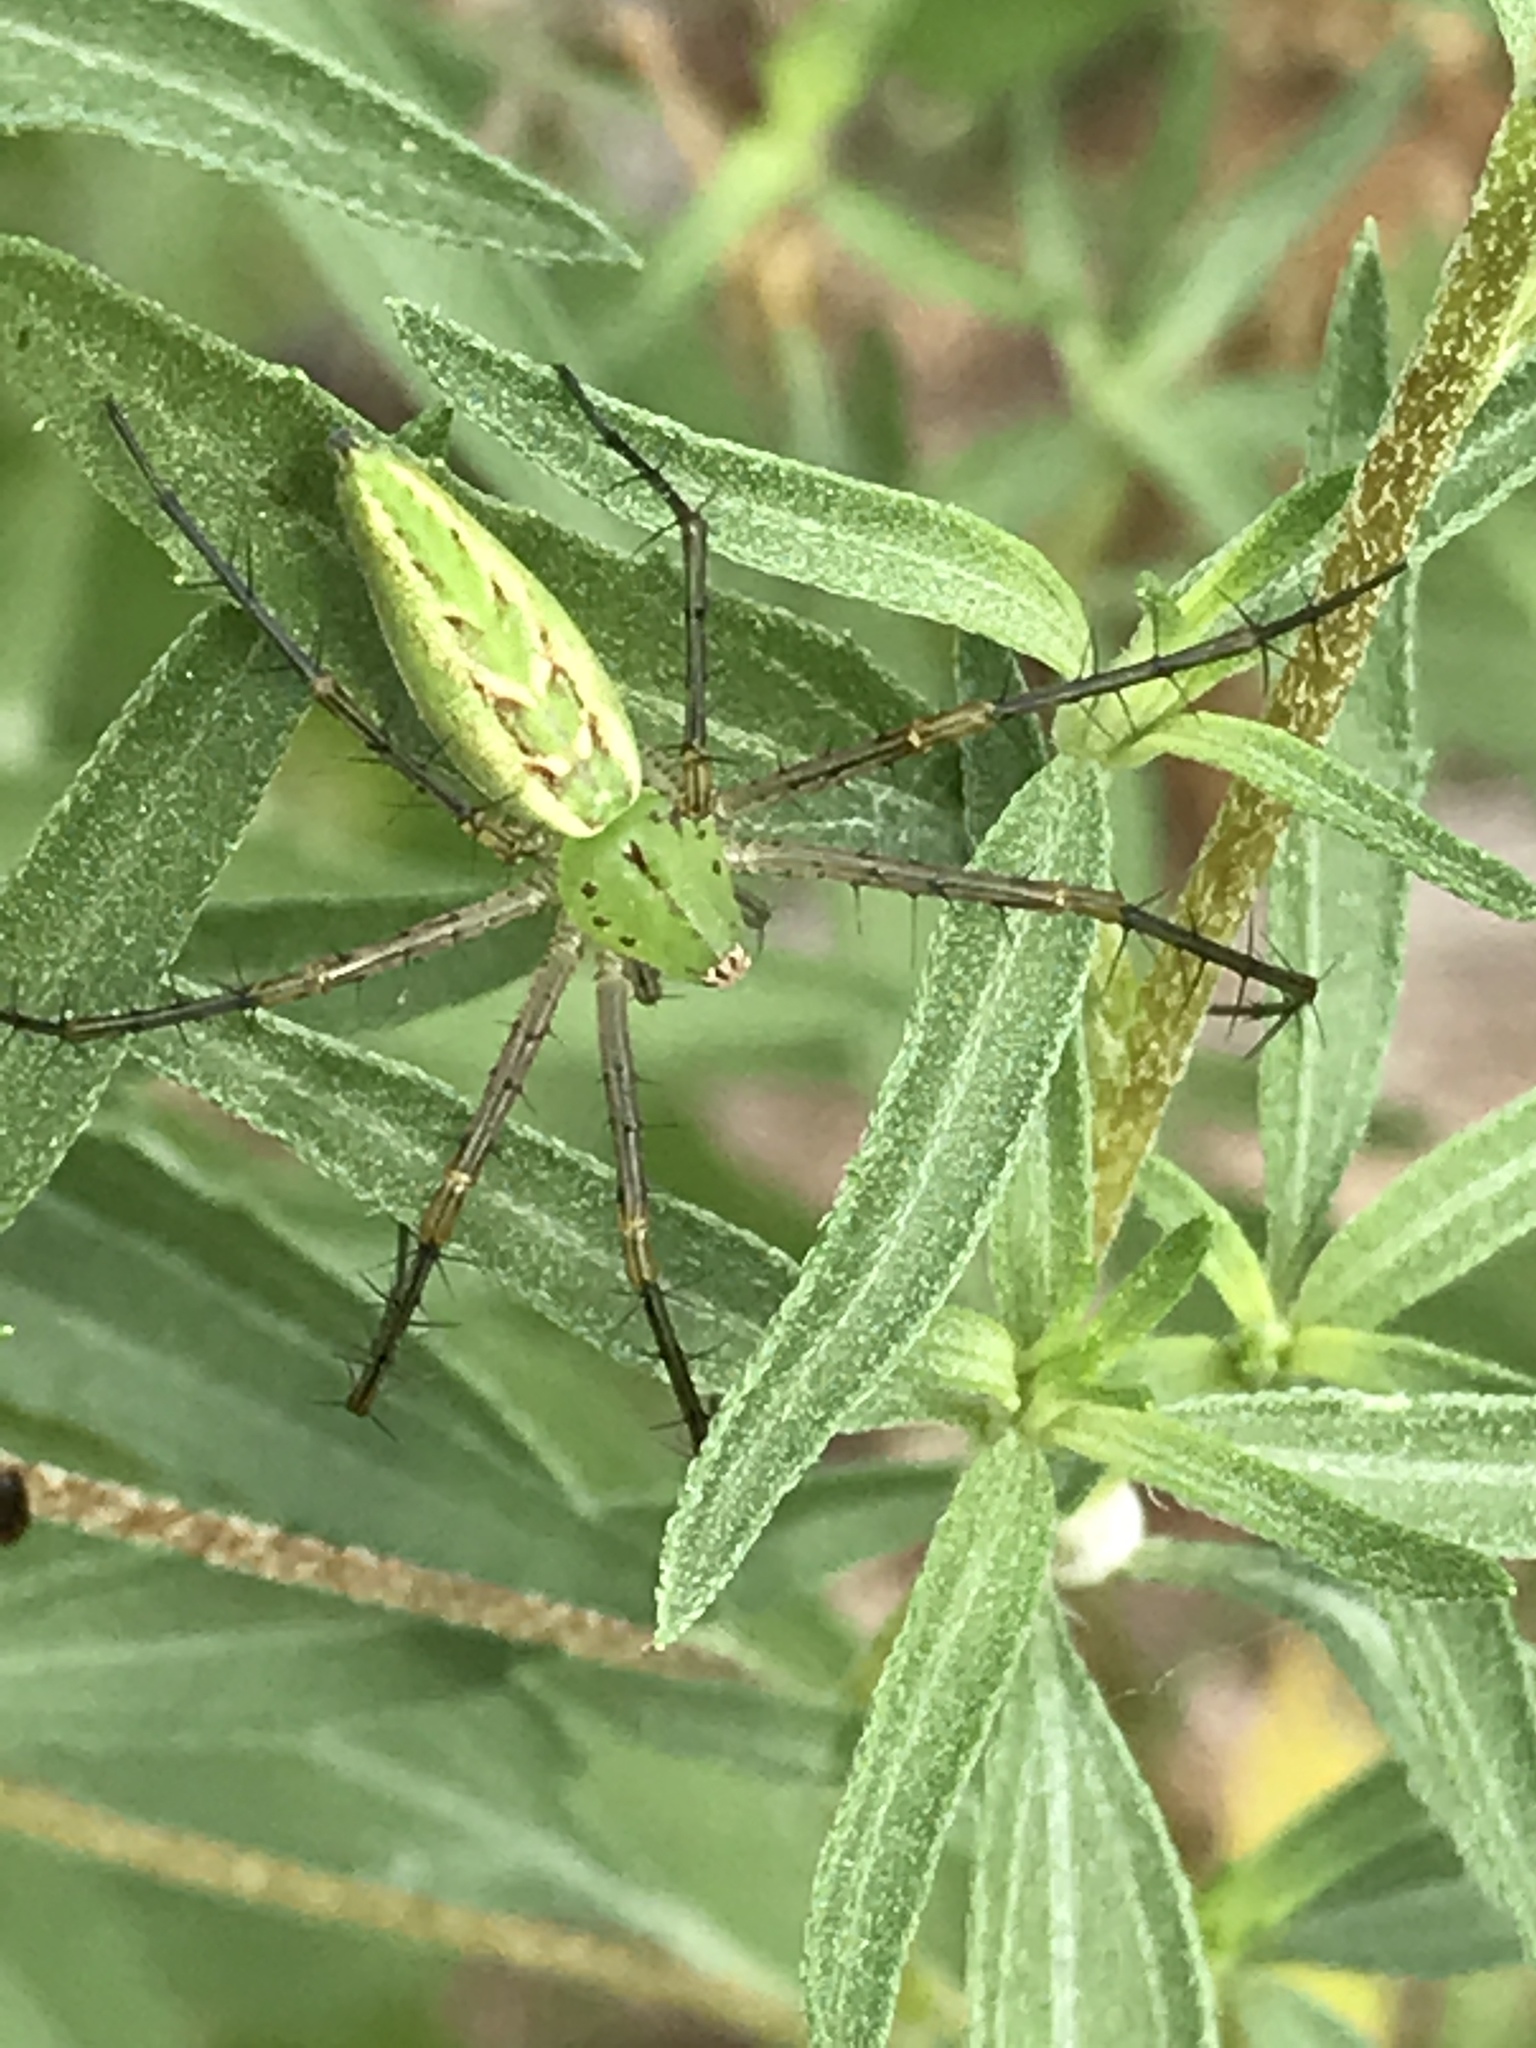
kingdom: Animalia
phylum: Arthropoda
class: Arachnida
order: Araneae
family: Oxyopidae
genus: Peucetia
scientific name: Peucetia viridans
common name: Lynx spiders
